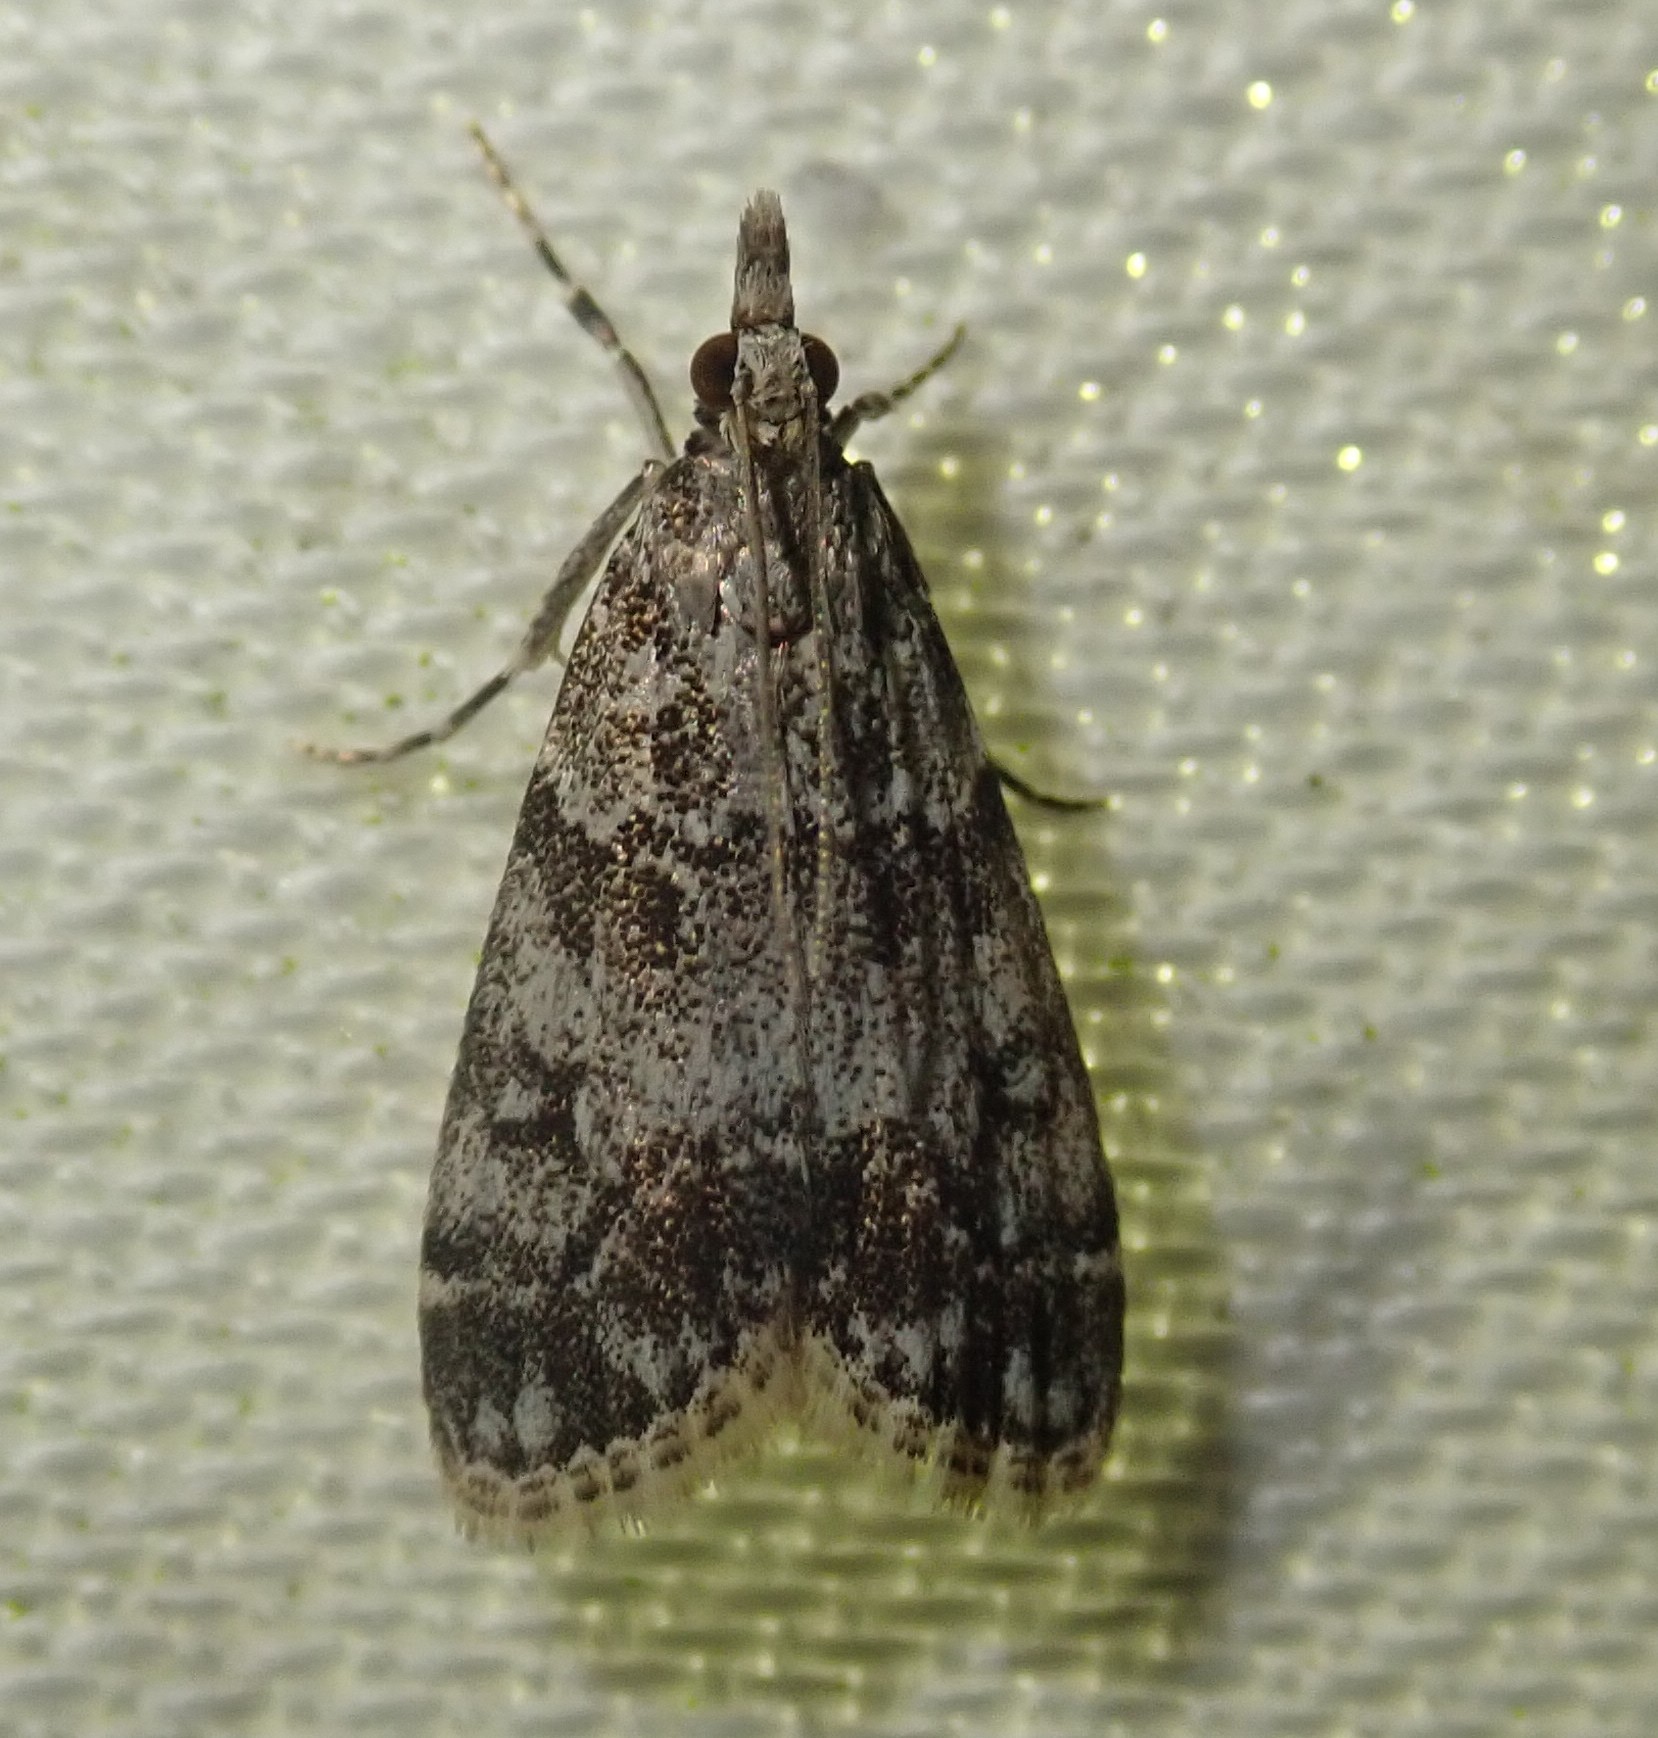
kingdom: Animalia
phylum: Arthropoda
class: Insecta
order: Lepidoptera
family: Crambidae
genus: Eudonia
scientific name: Eudonia lacustrata
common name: Little grey
